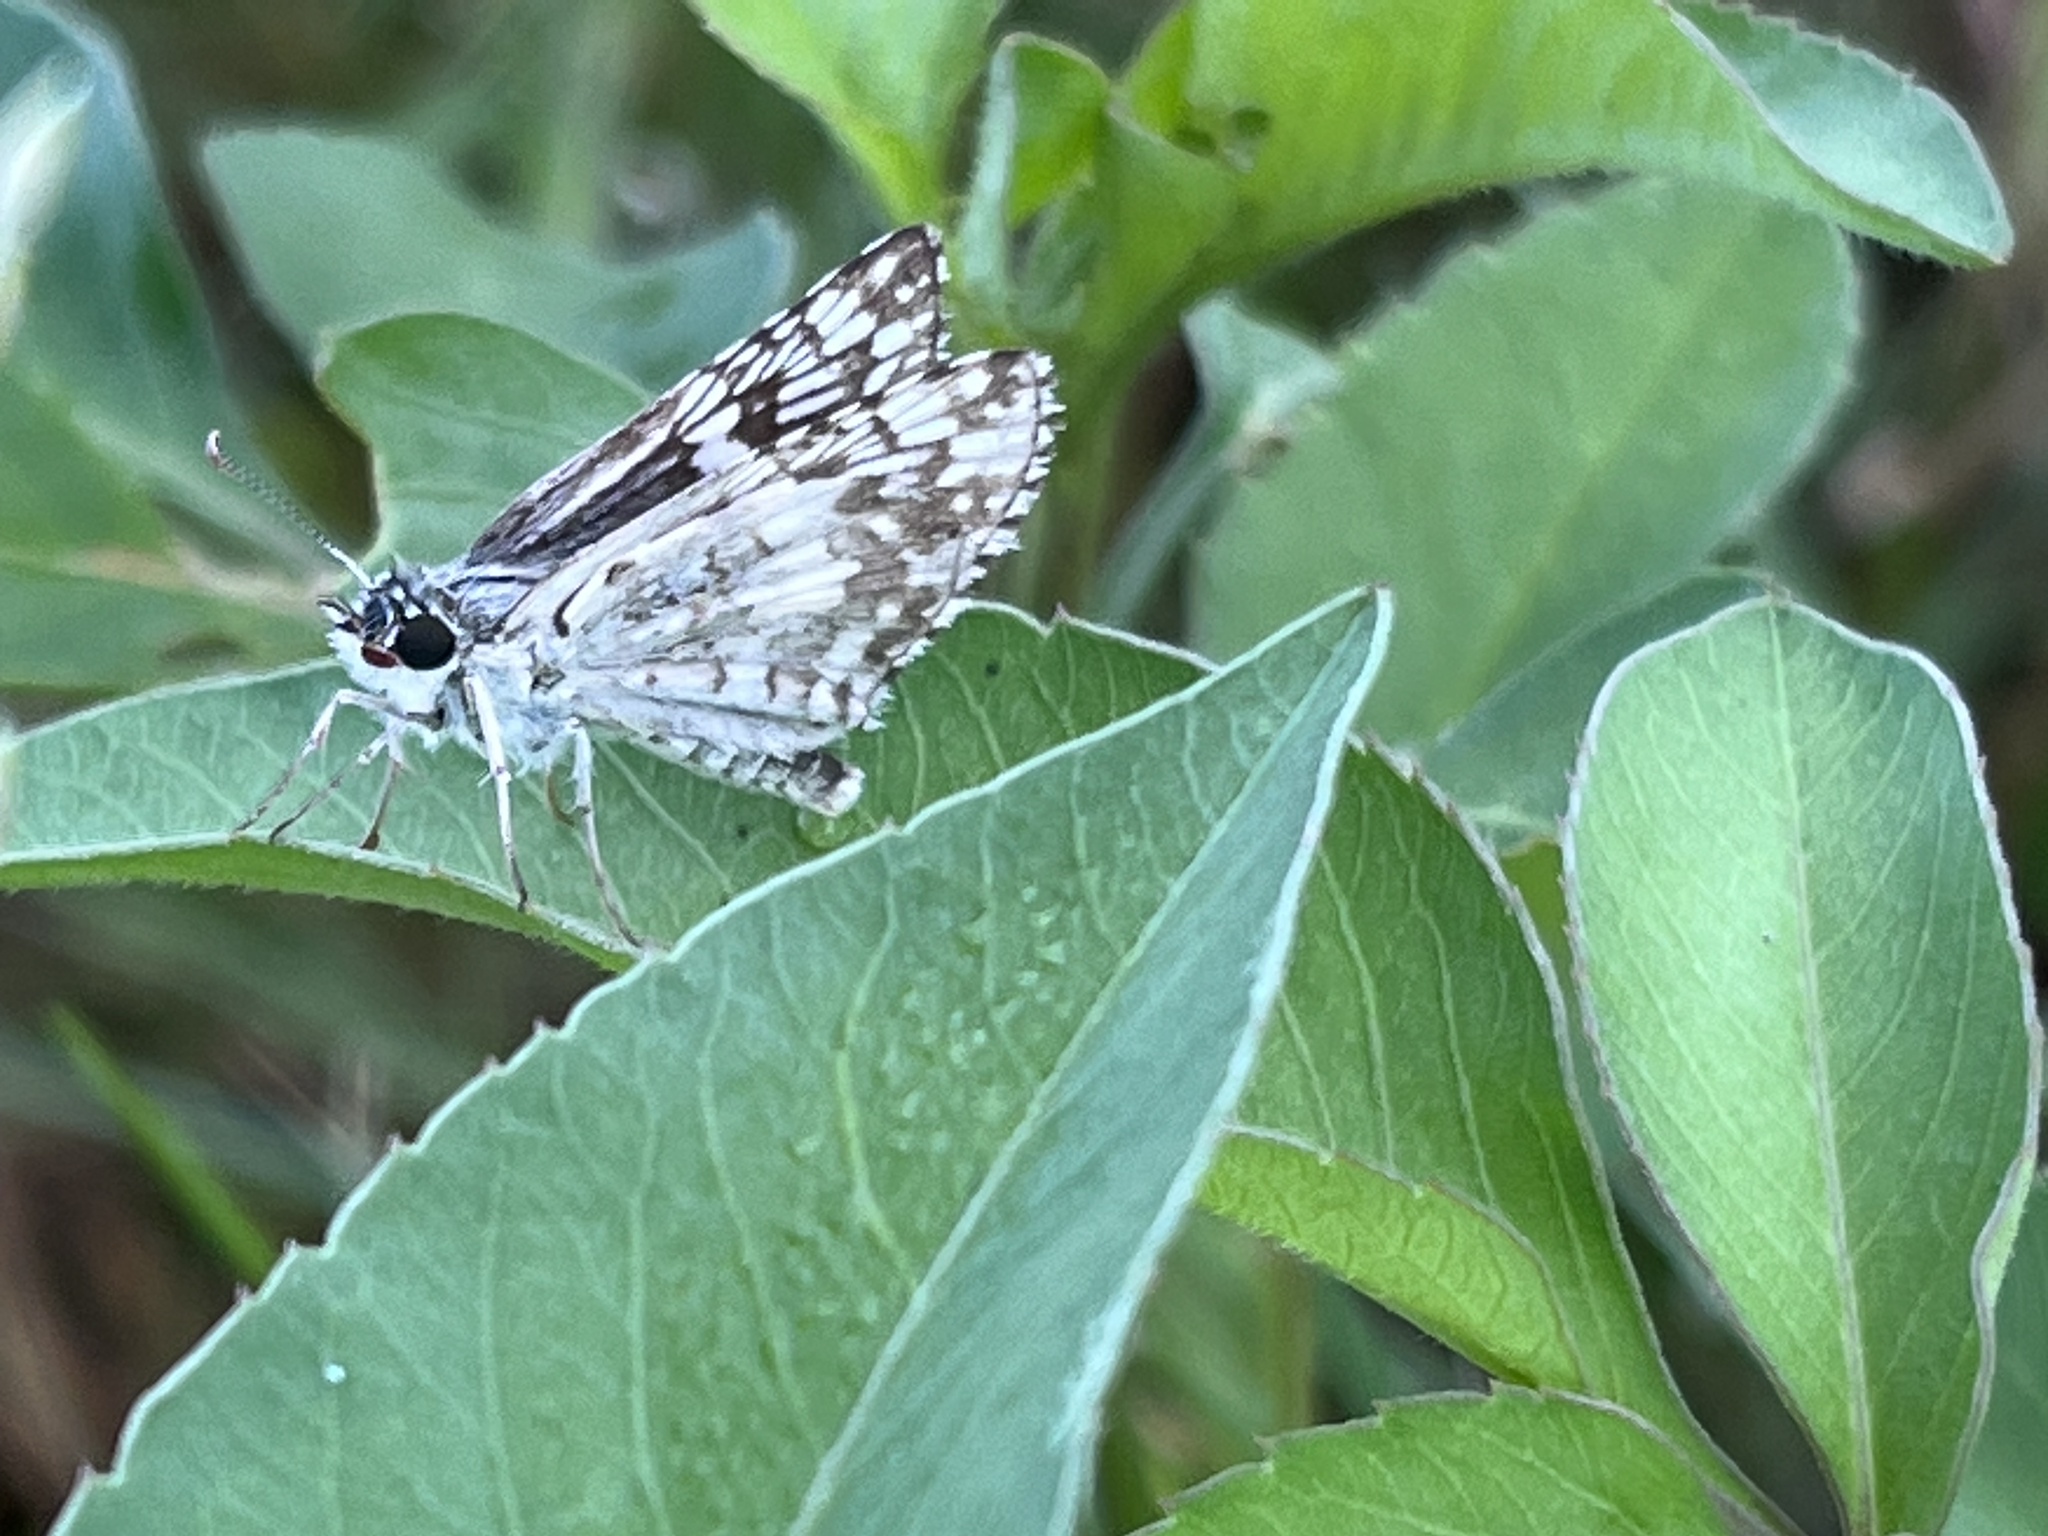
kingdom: Animalia
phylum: Arthropoda
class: Insecta
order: Lepidoptera
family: Hesperiidae
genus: Burnsius
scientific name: Burnsius albezens
